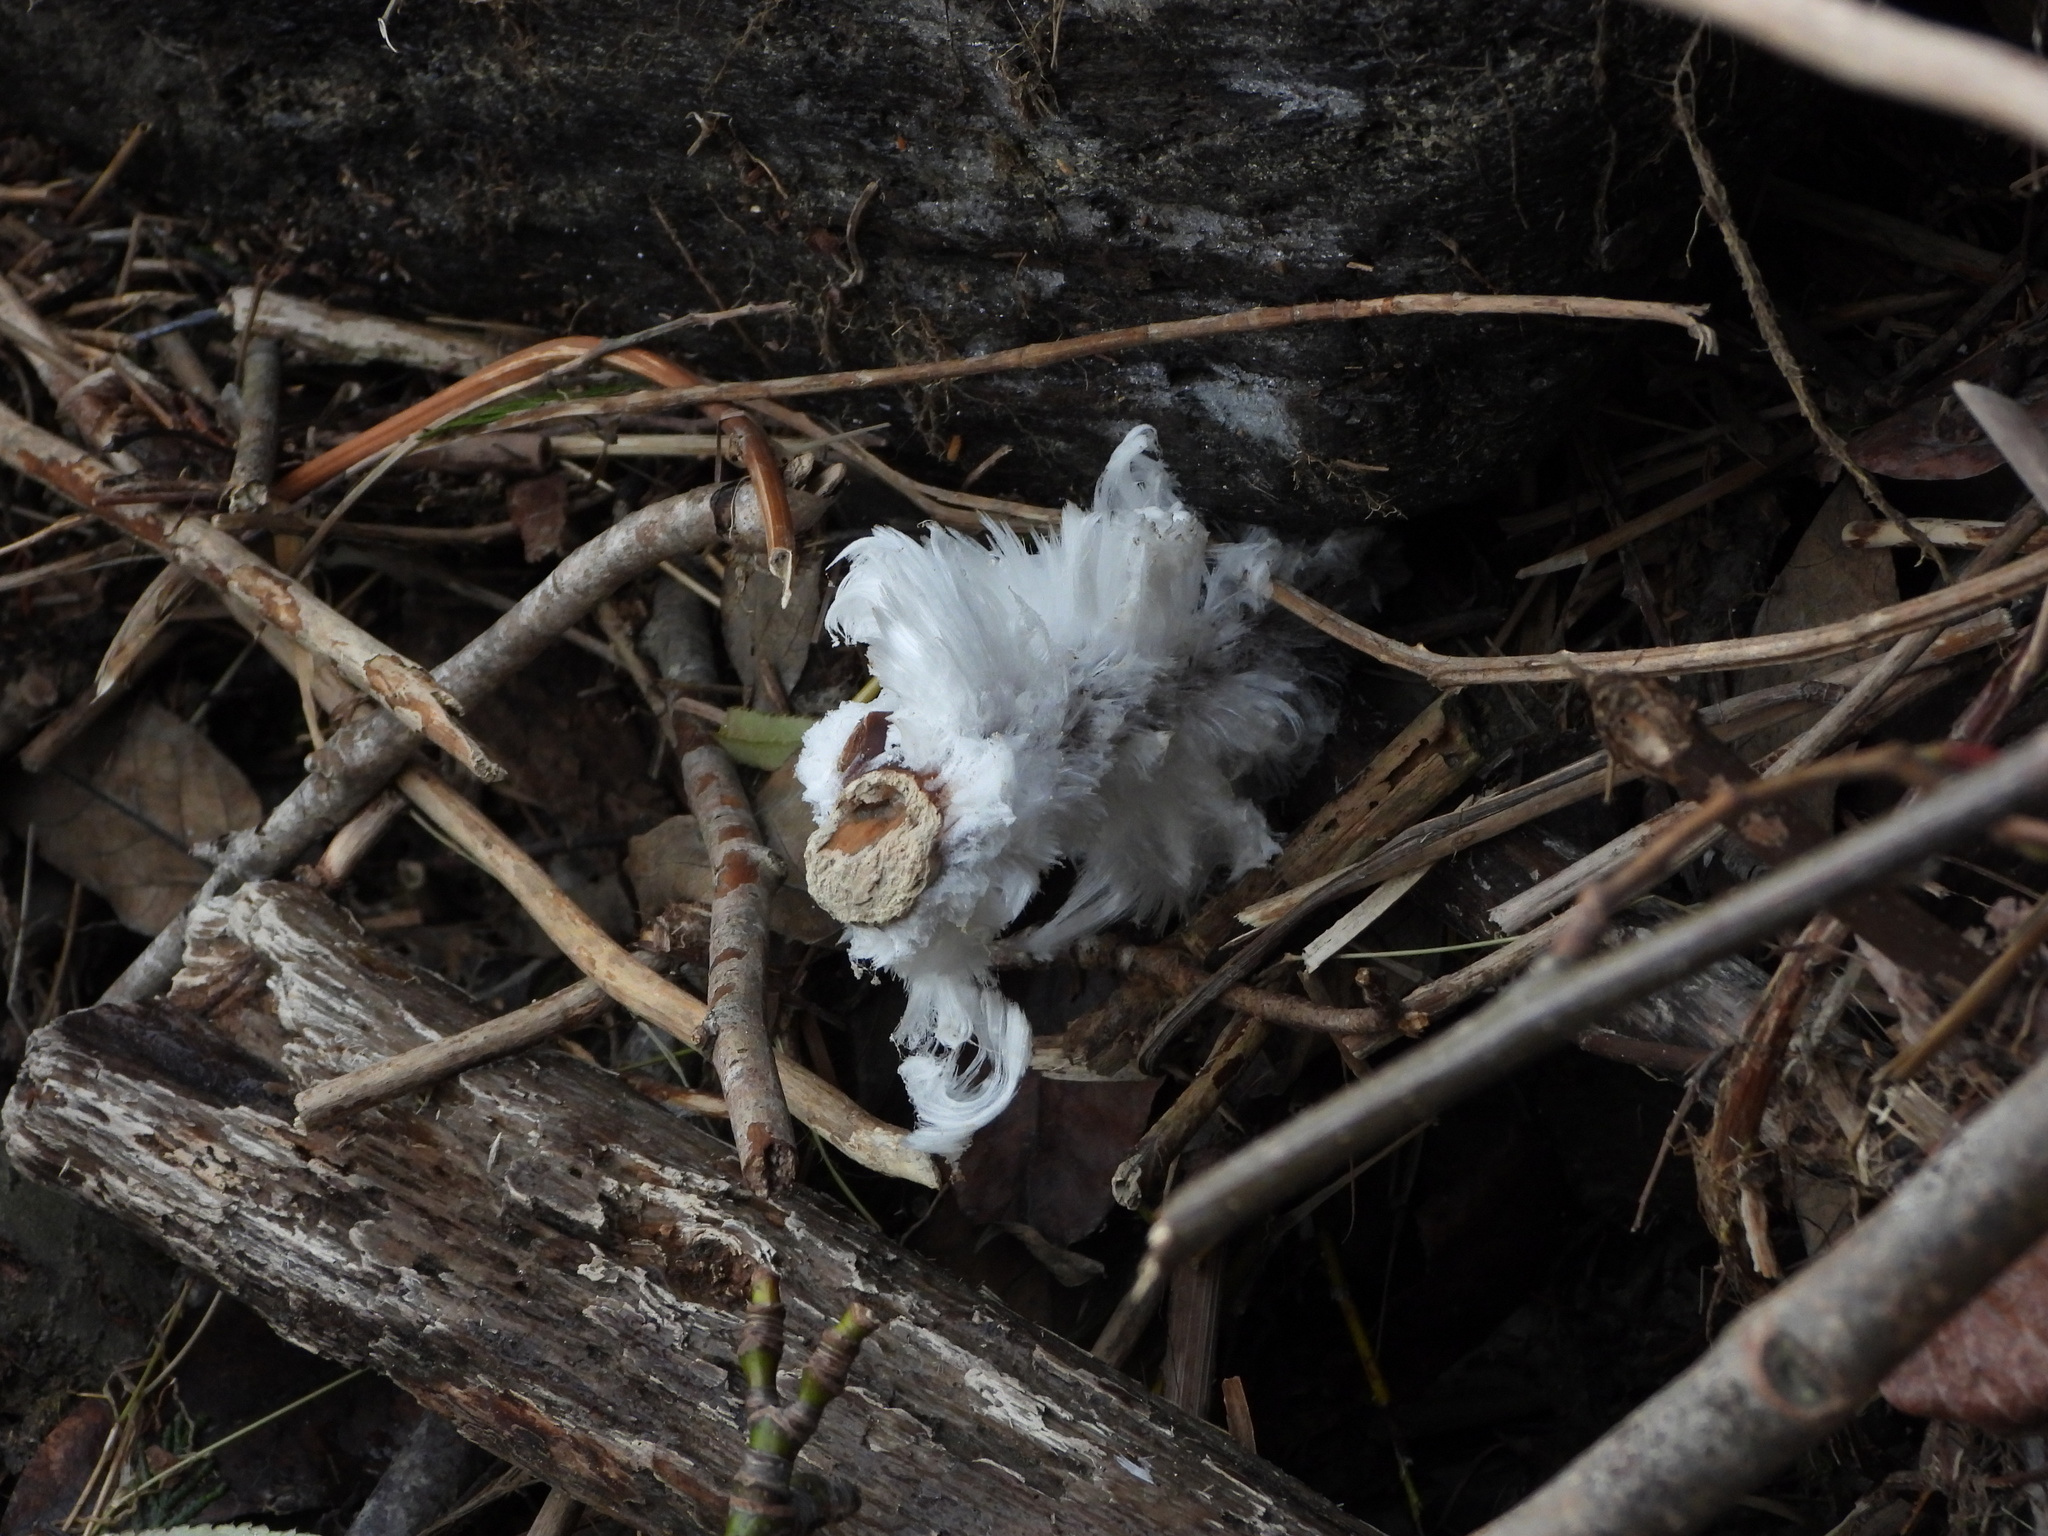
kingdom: Fungi
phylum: Basidiomycota
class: Agaricomycetes
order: Auriculariales
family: Auriculariaceae
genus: Exidiopsis
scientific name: Exidiopsis effusa
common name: Hair ice crust
